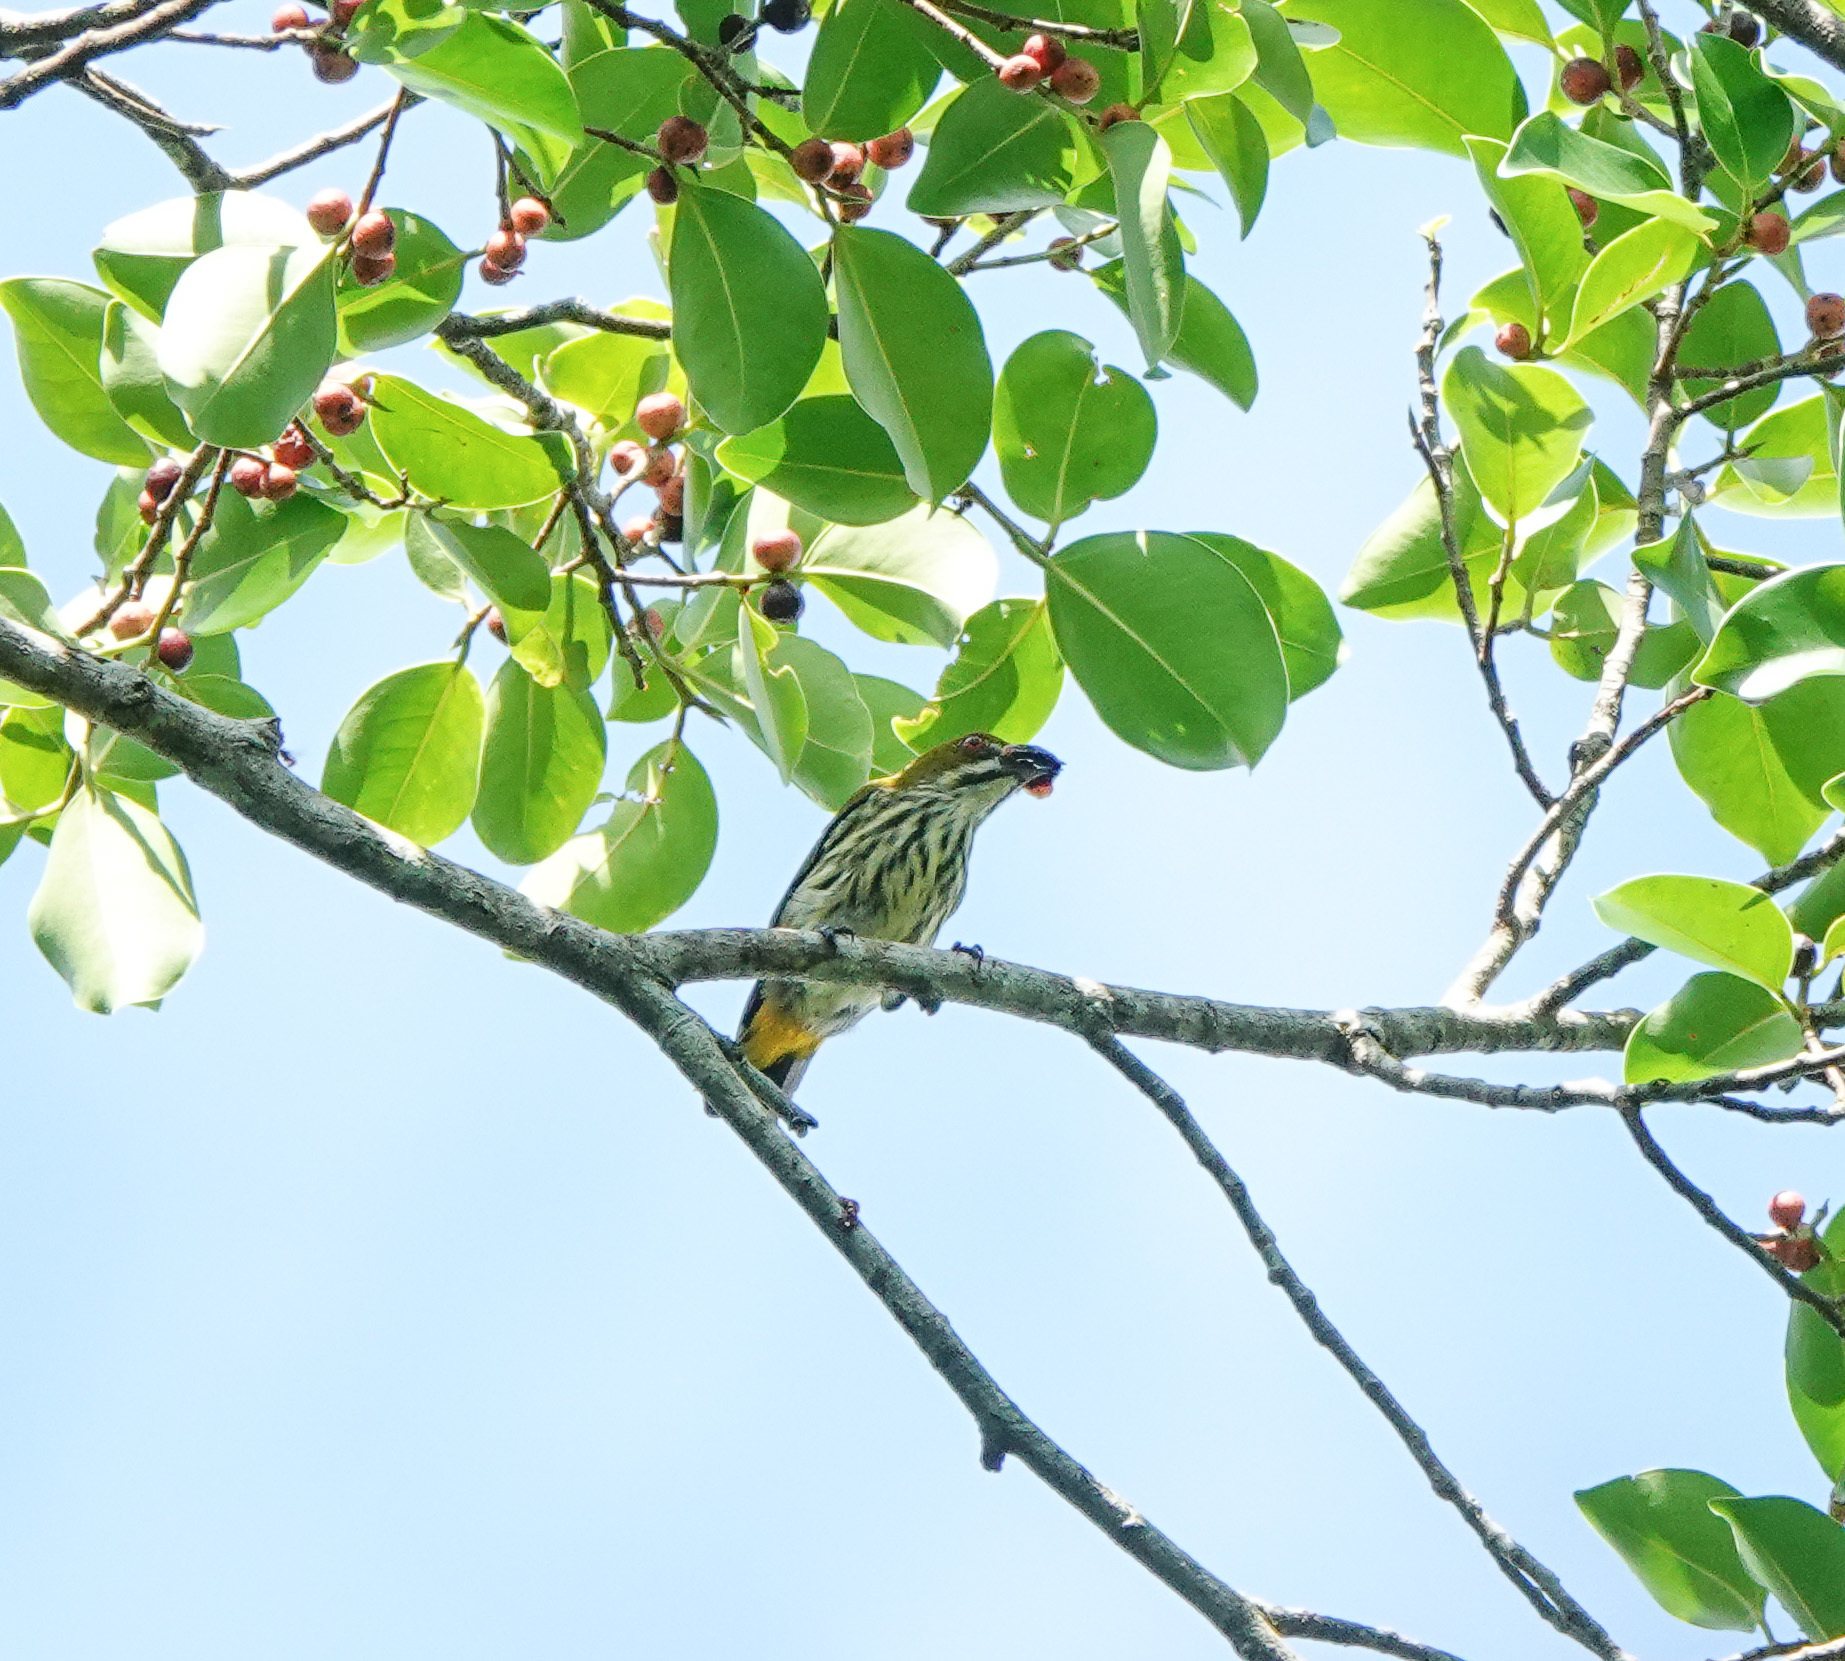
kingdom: Animalia
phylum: Chordata
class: Aves
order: Passeriformes
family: Dicaeidae
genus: Dicaeum
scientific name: Dicaeum chrysorrheum
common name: Yellow-vented flowerpecker
